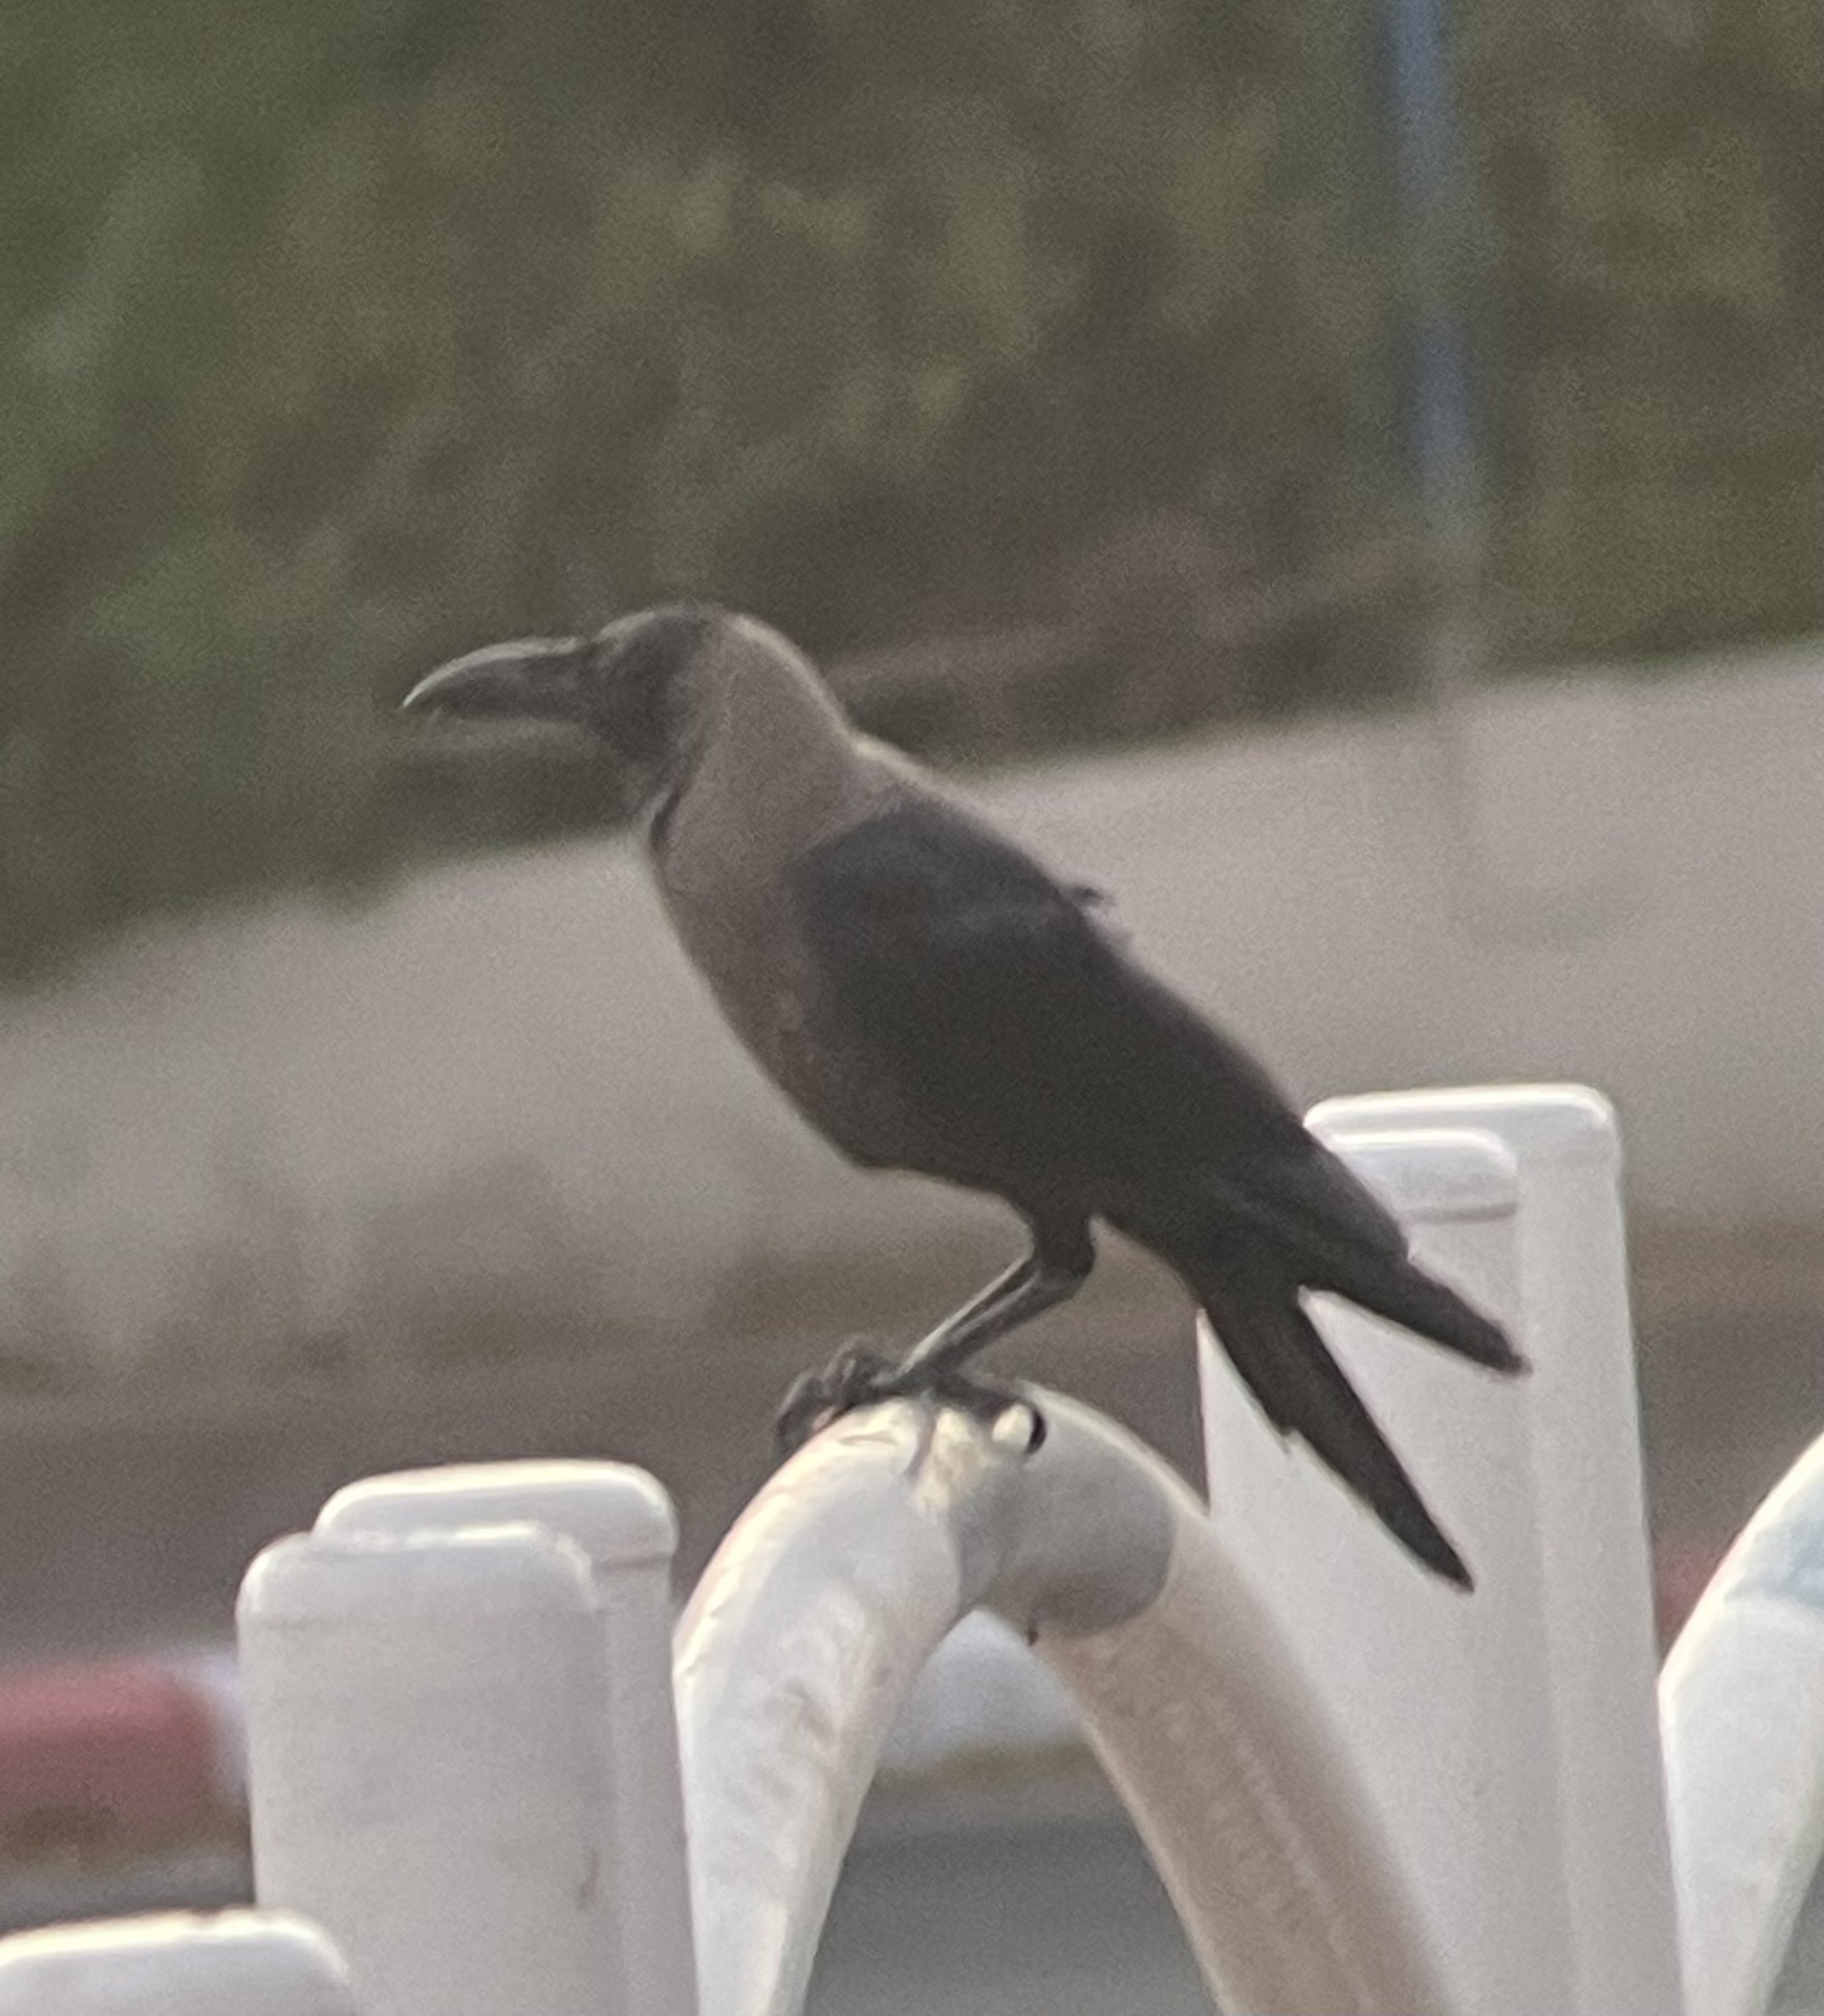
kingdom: Animalia
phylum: Chordata
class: Aves
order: Passeriformes
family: Corvidae
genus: Corvus
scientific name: Corvus splendens
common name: House crow
